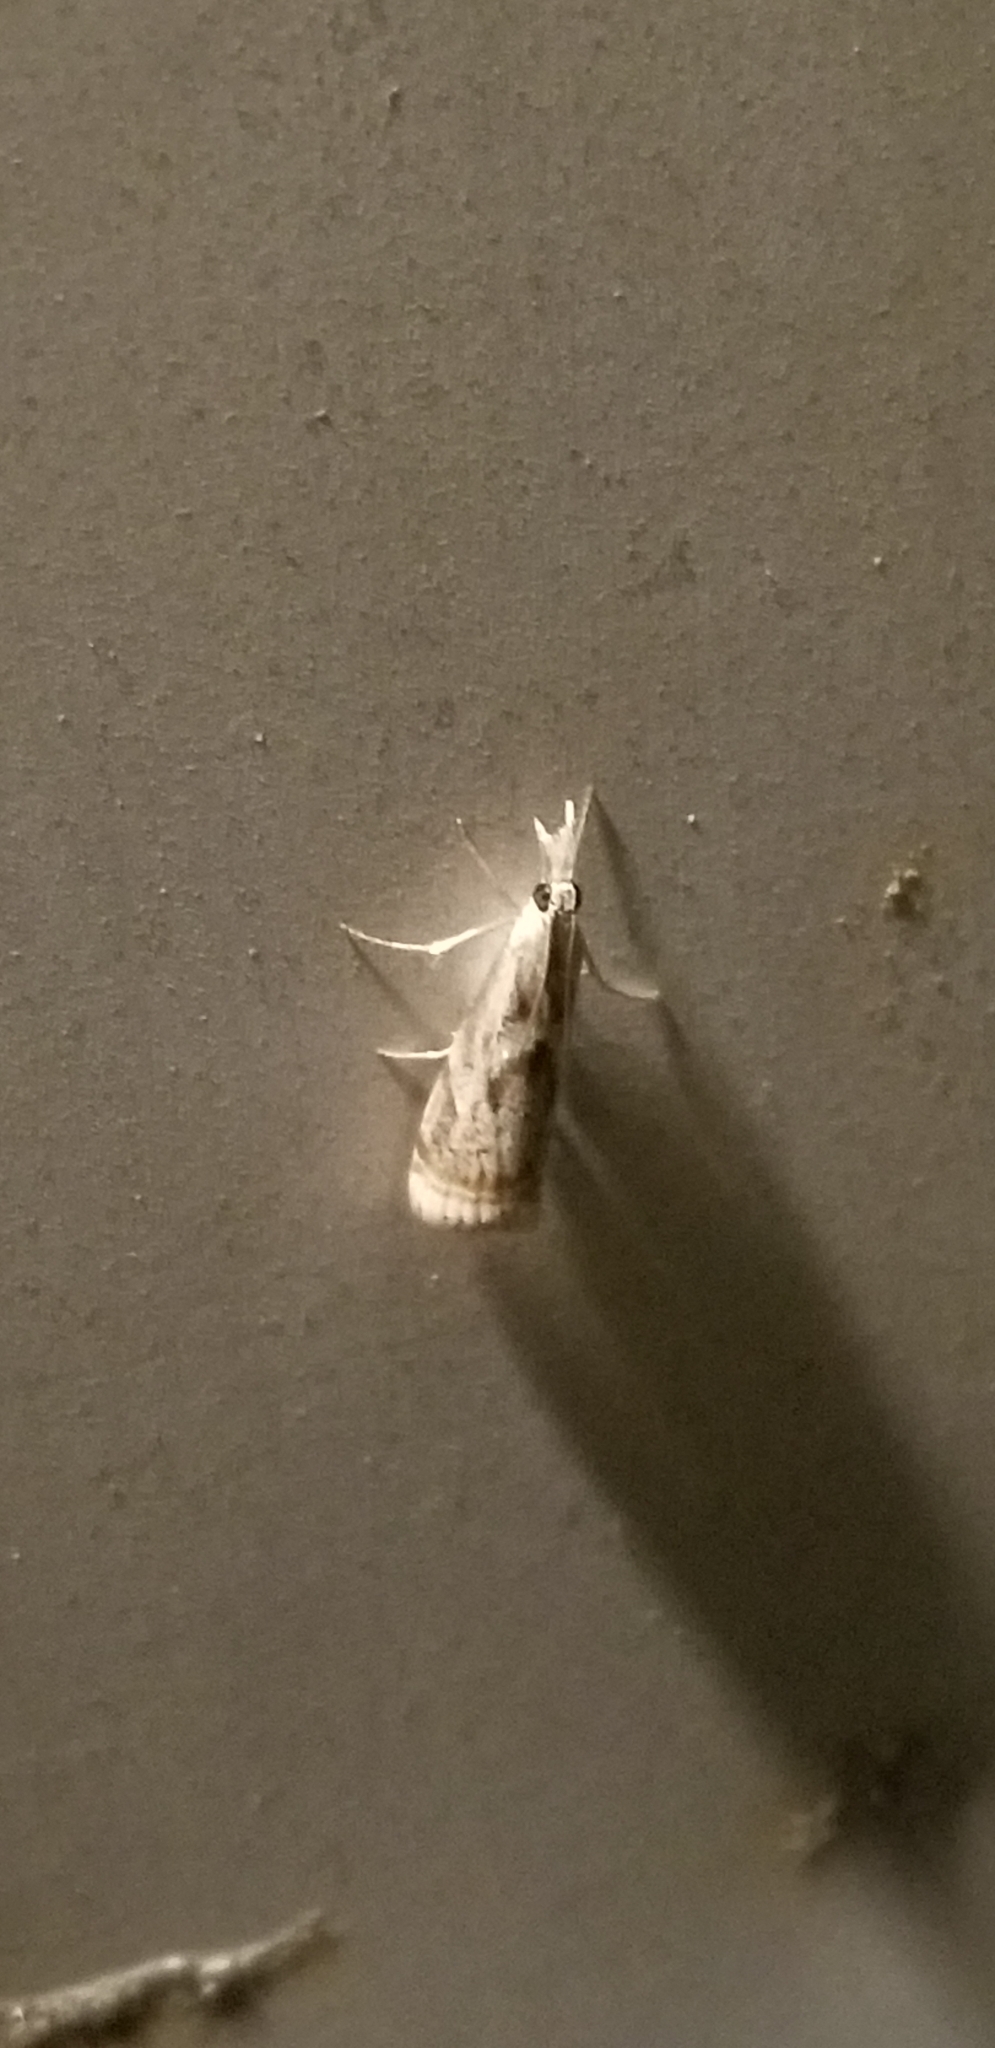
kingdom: Animalia
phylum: Arthropoda
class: Insecta
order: Lepidoptera
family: Crambidae
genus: Microcrambus
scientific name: Microcrambus elegans
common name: Elegant grass-veneer
